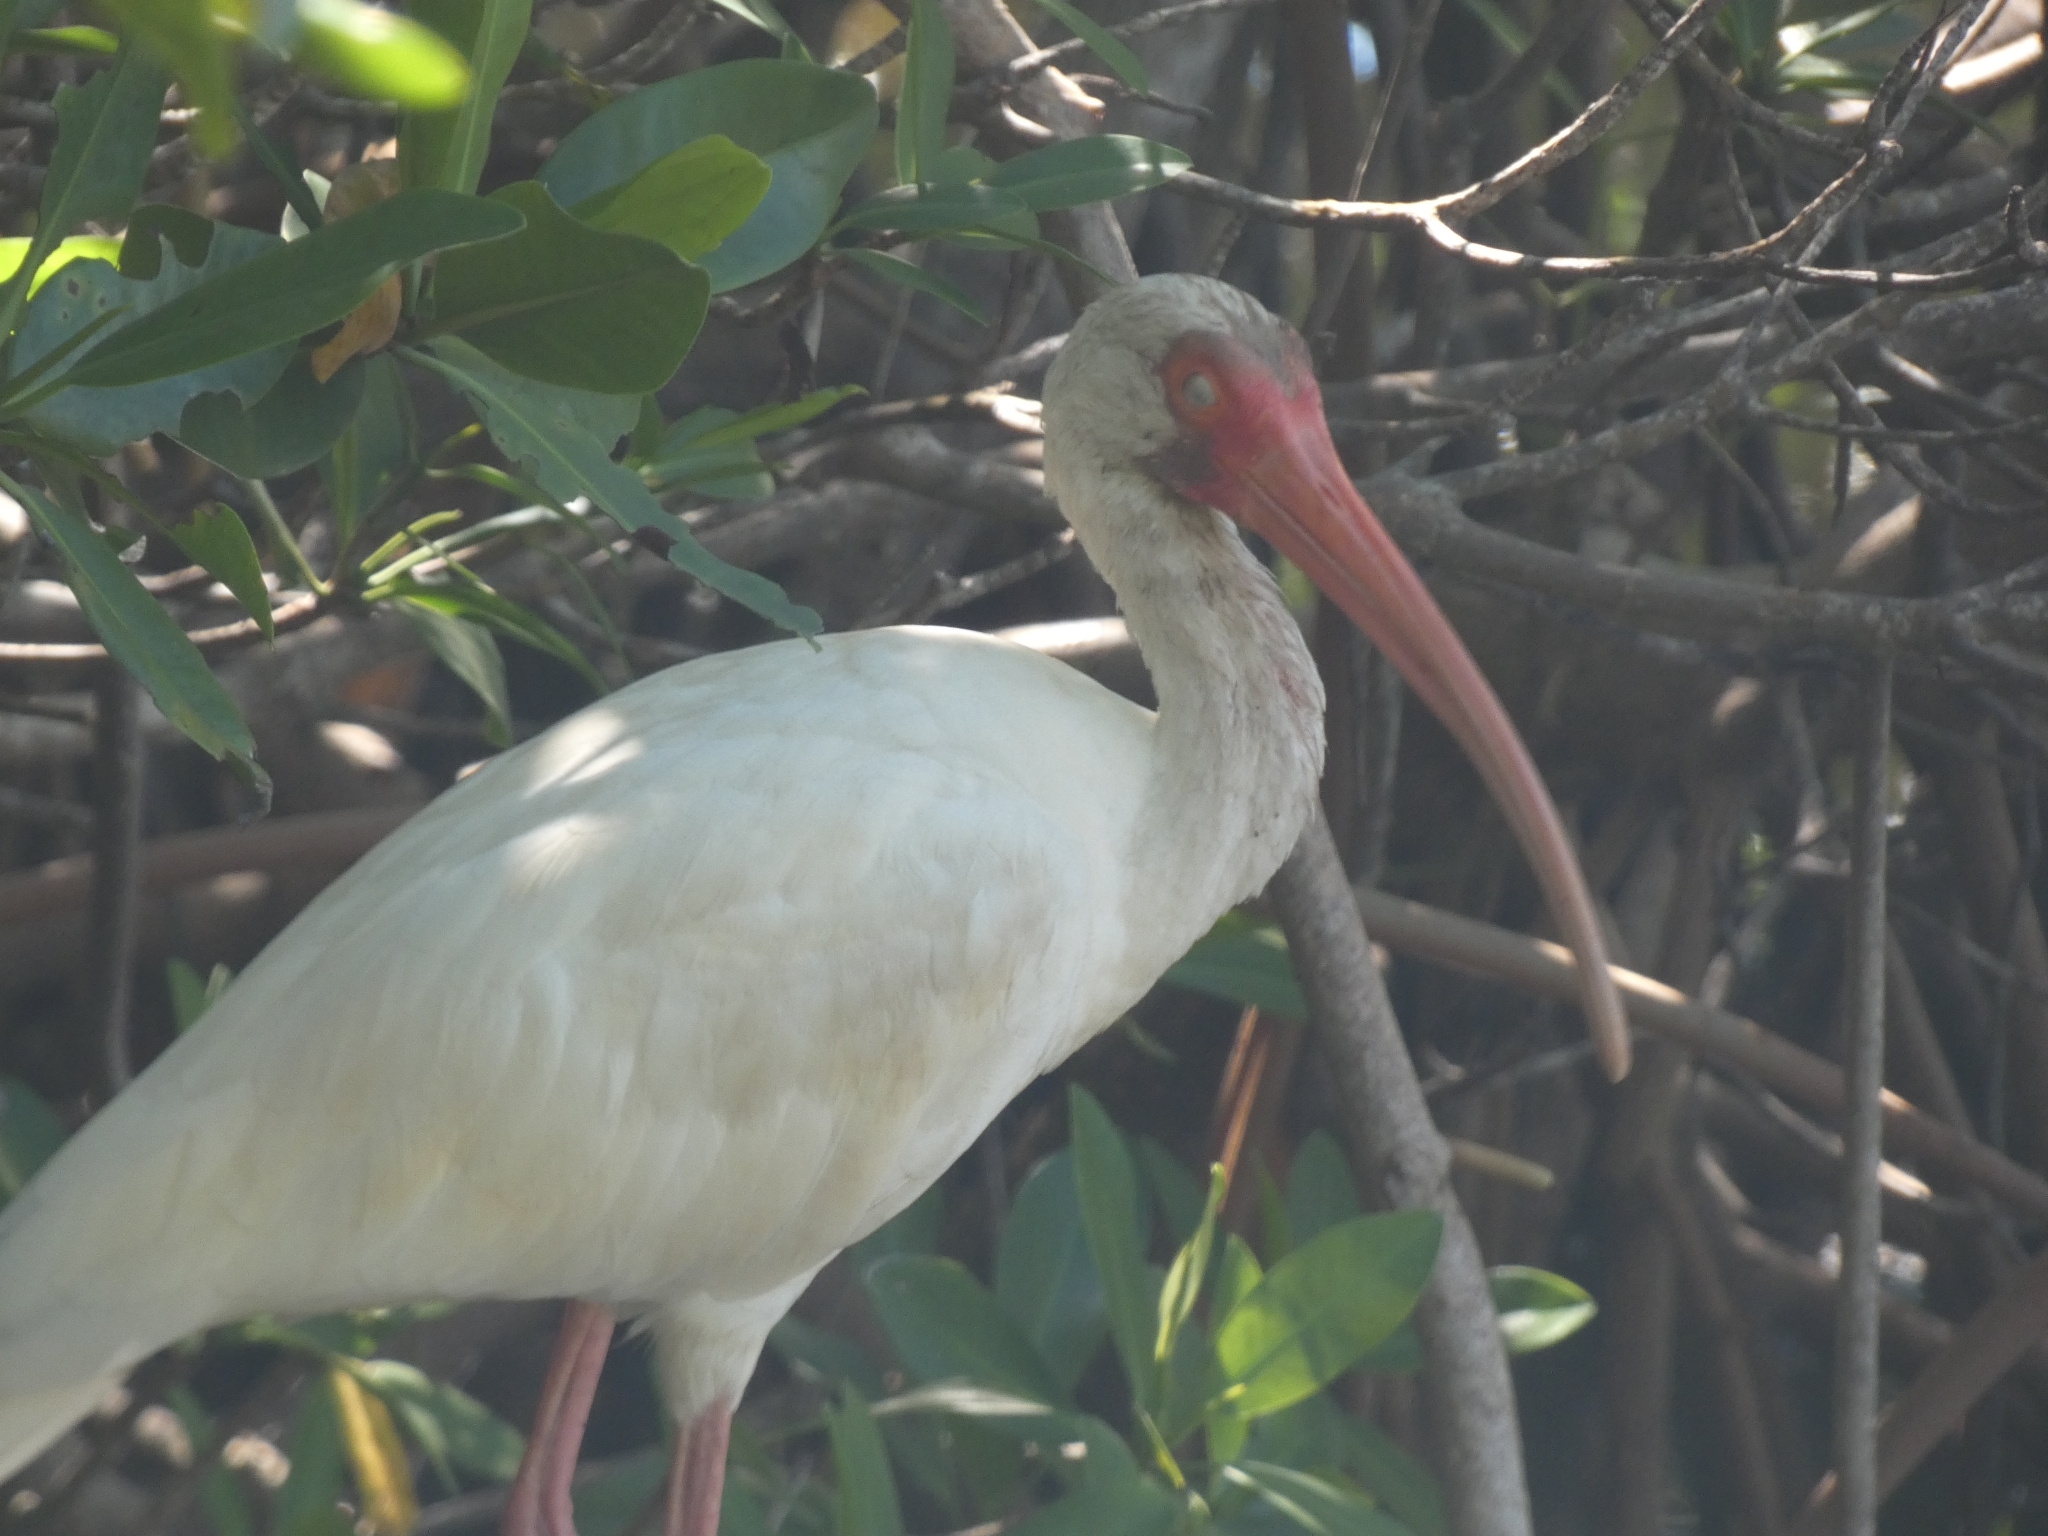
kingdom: Animalia
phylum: Chordata
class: Aves
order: Pelecaniformes
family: Threskiornithidae
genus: Eudocimus
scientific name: Eudocimus albus
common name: White ibis
